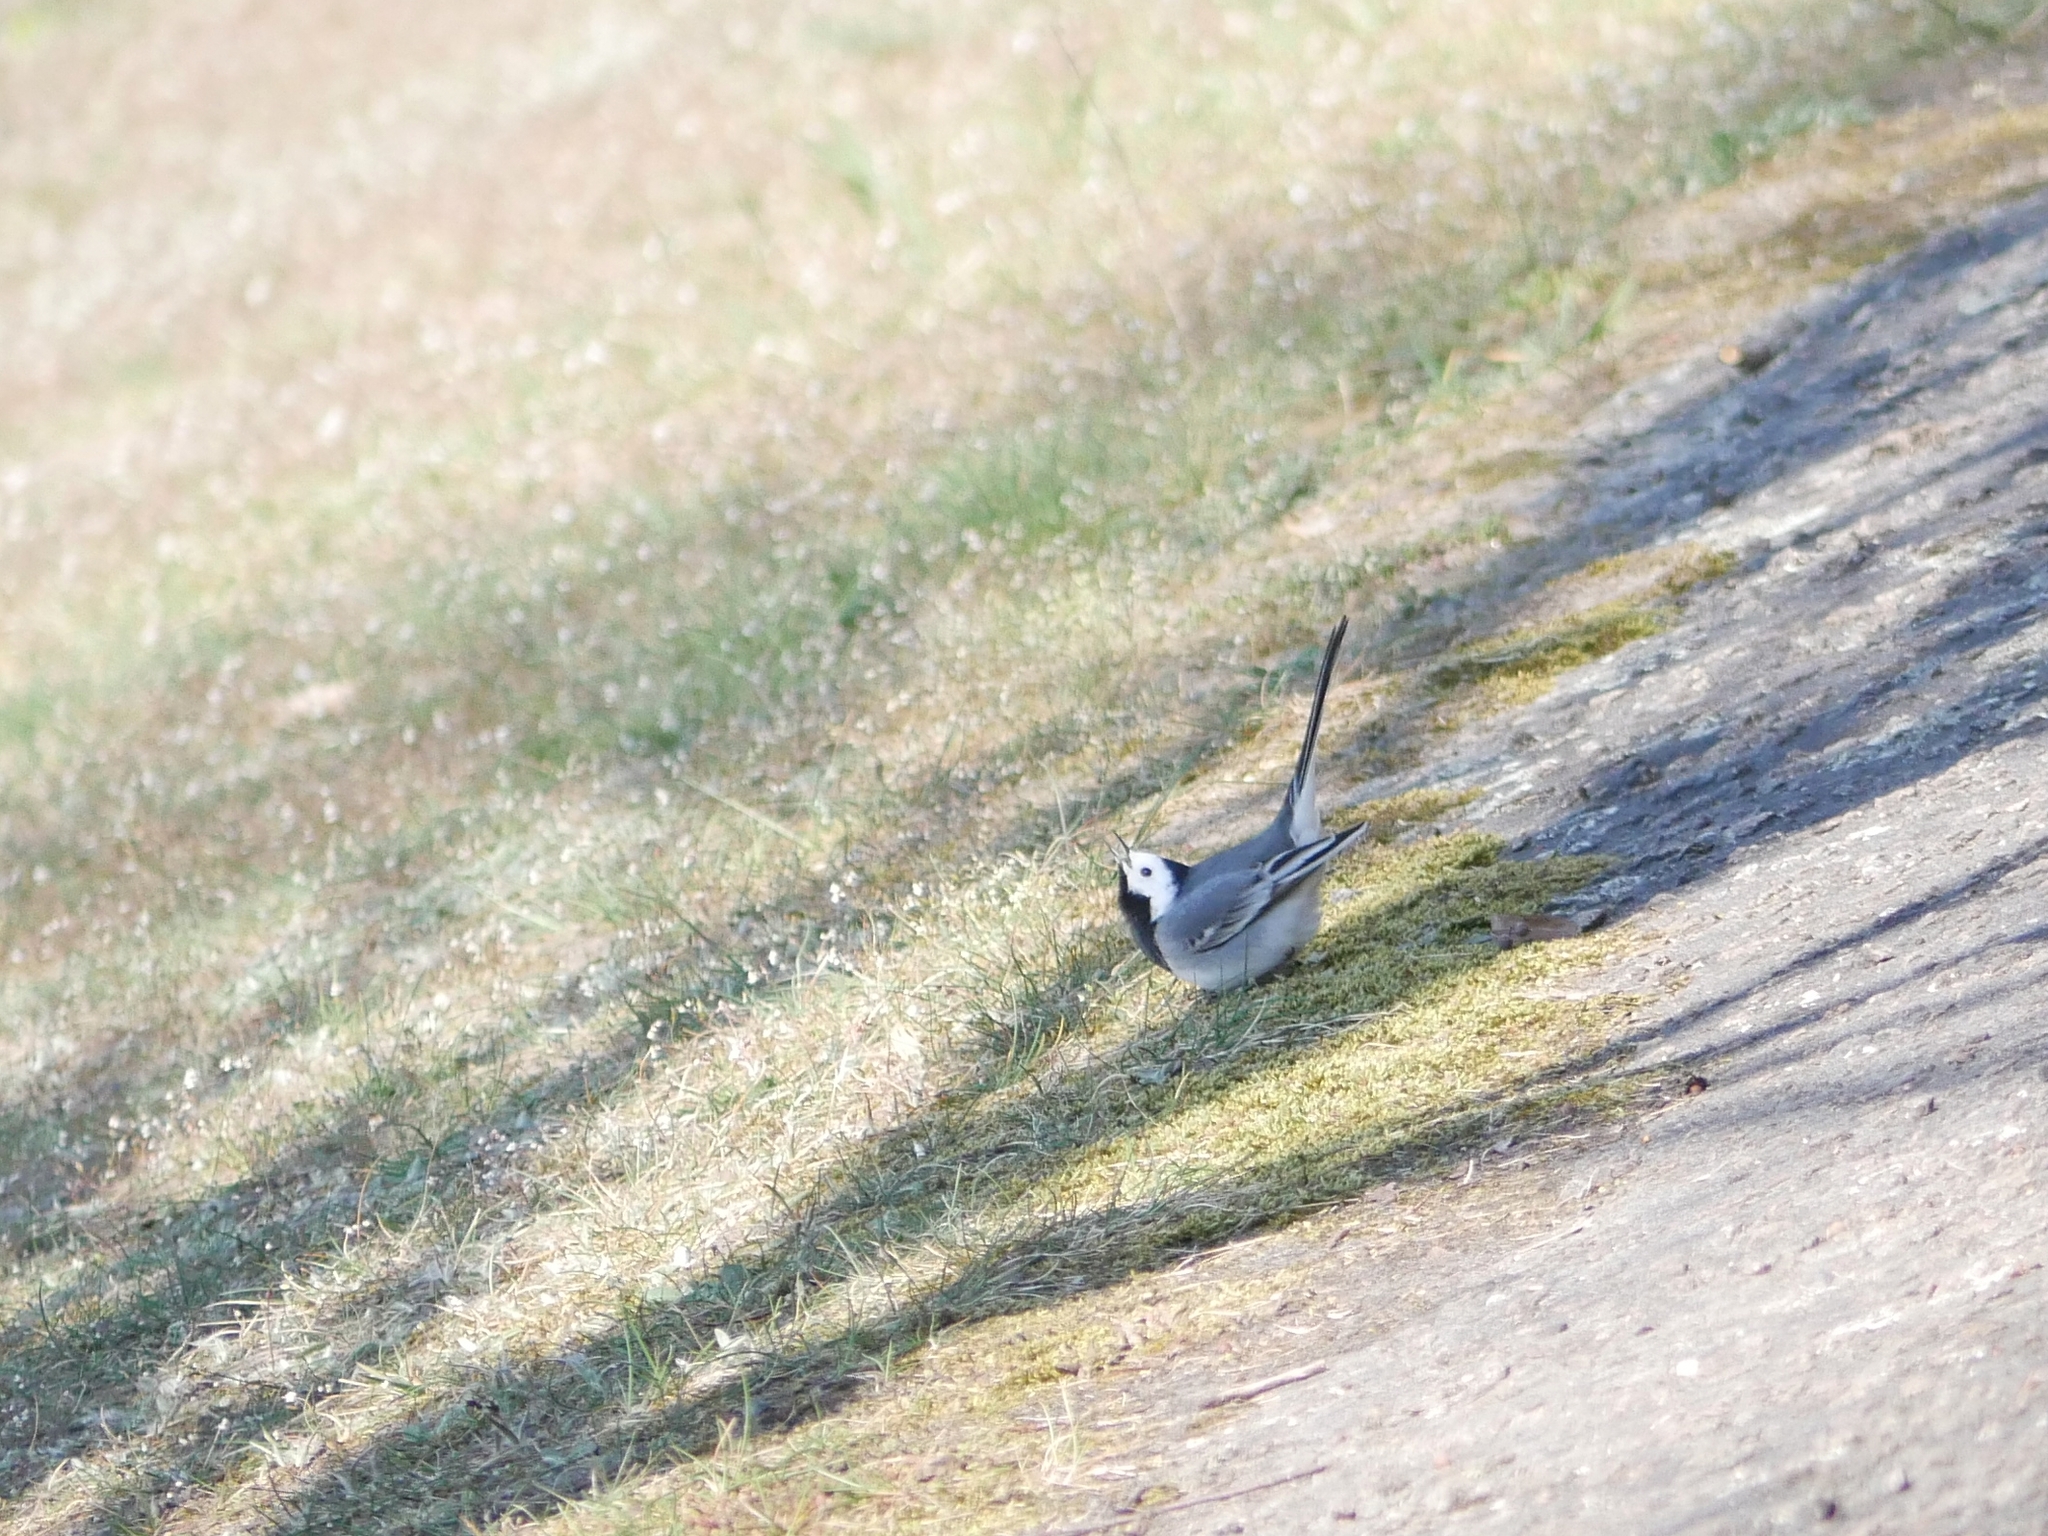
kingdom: Animalia
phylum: Chordata
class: Aves
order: Passeriformes
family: Motacillidae
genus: Motacilla
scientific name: Motacilla alba
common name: White wagtail
